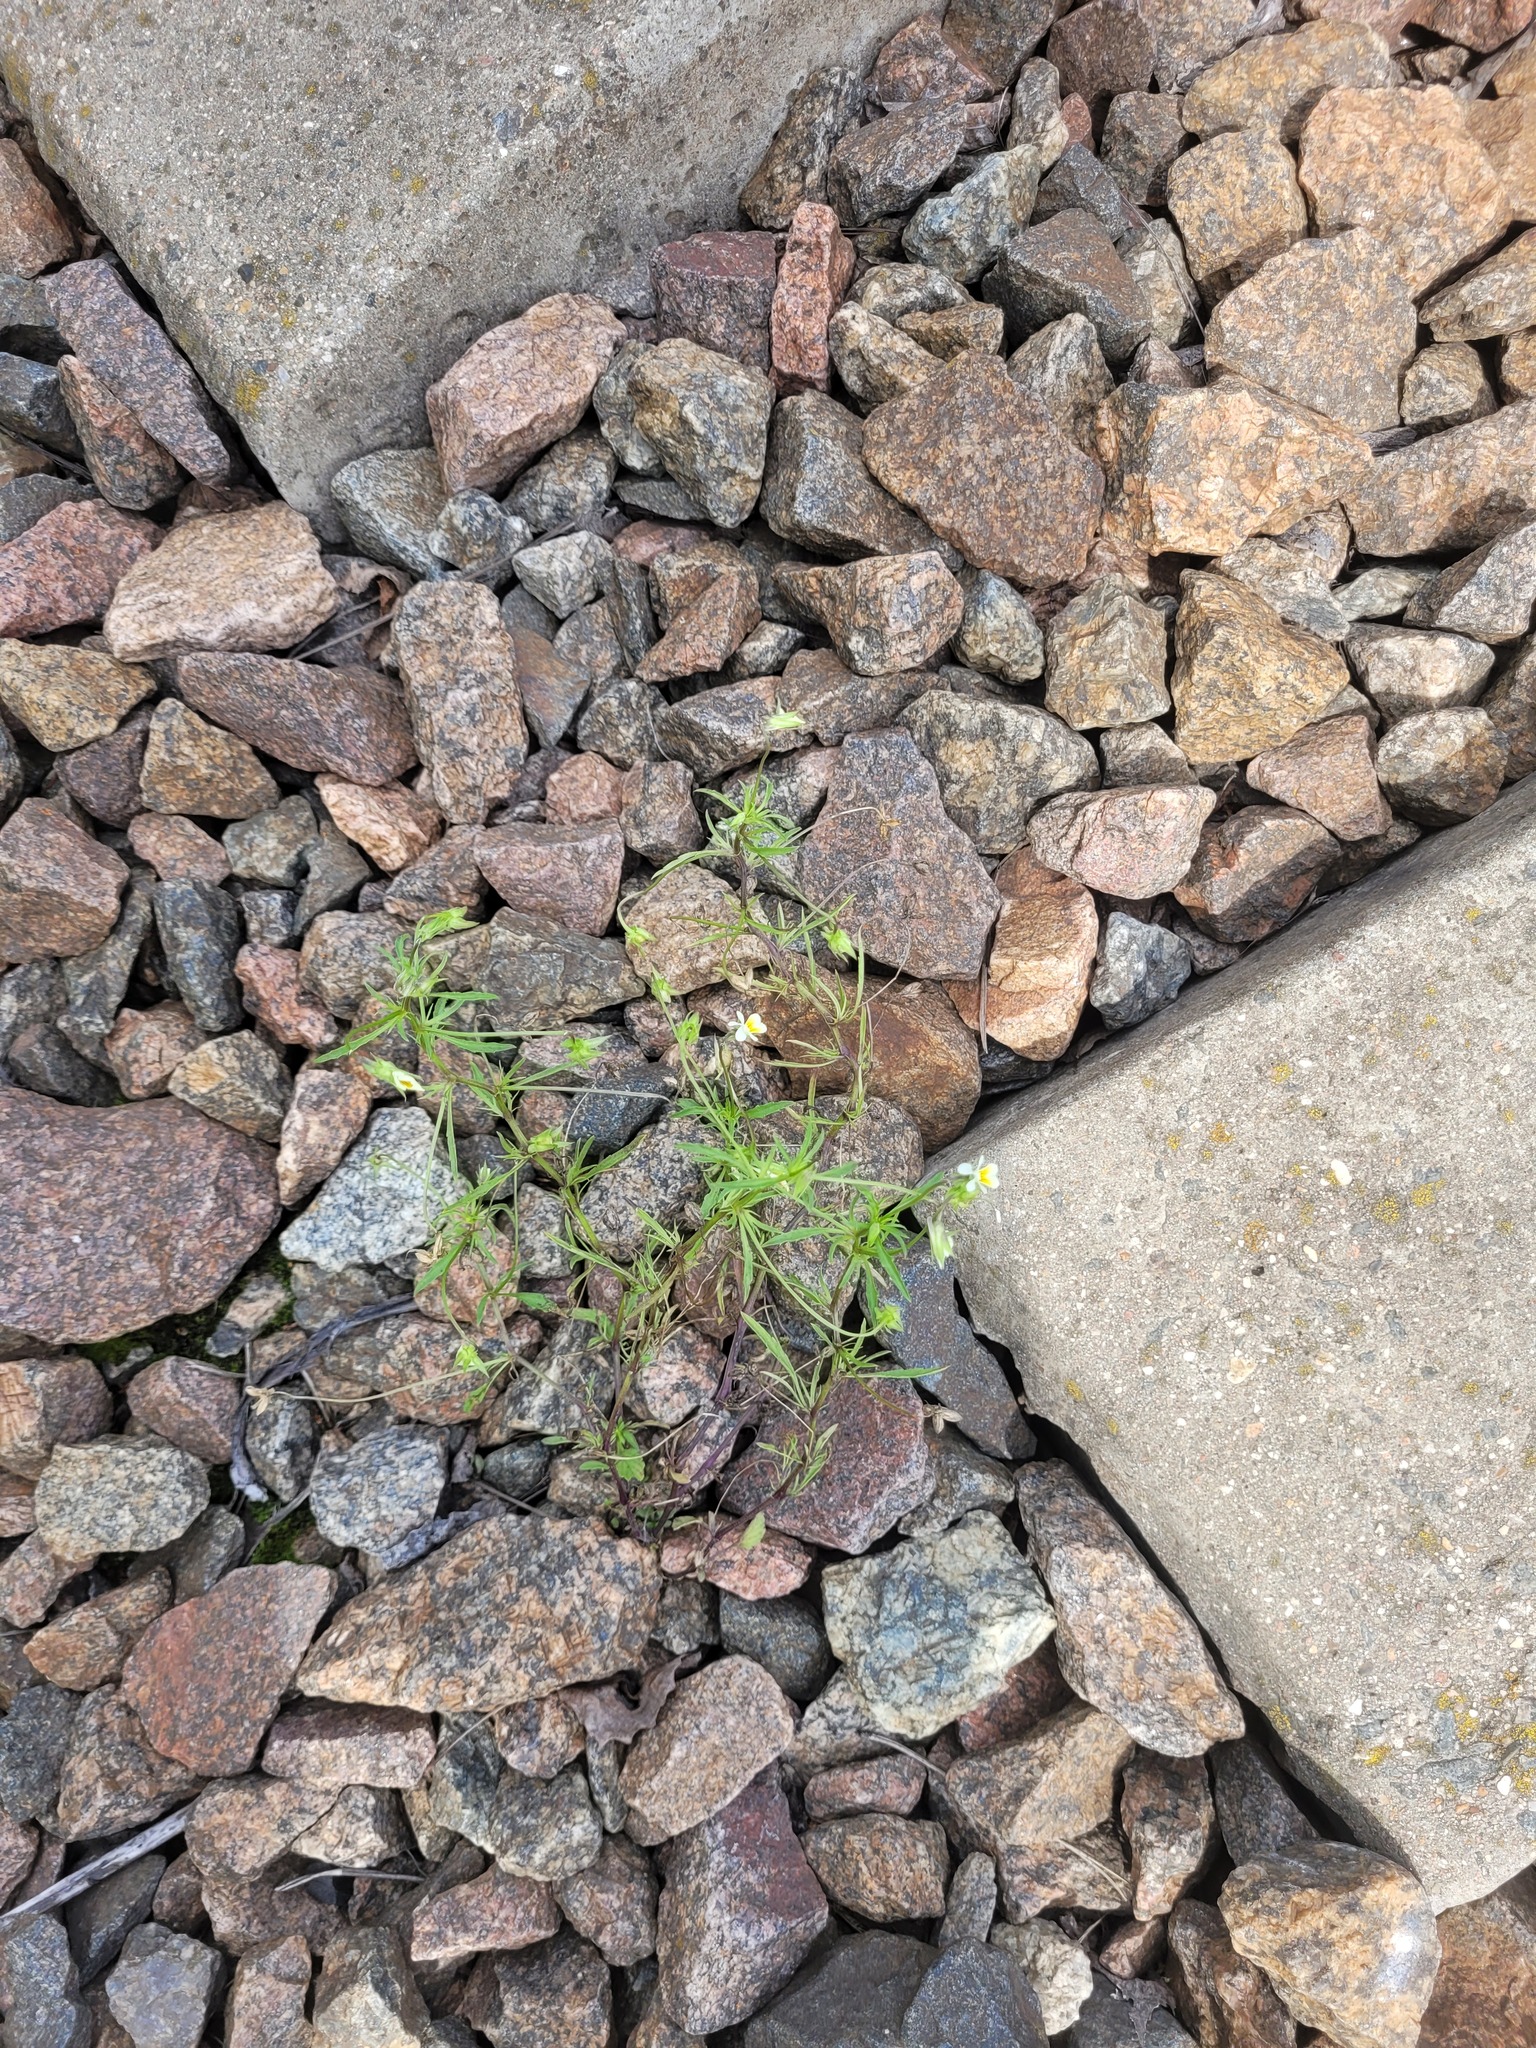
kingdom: Plantae
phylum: Tracheophyta
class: Magnoliopsida
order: Malpighiales
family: Violaceae
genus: Viola
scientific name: Viola arvensis
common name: Field pansy
